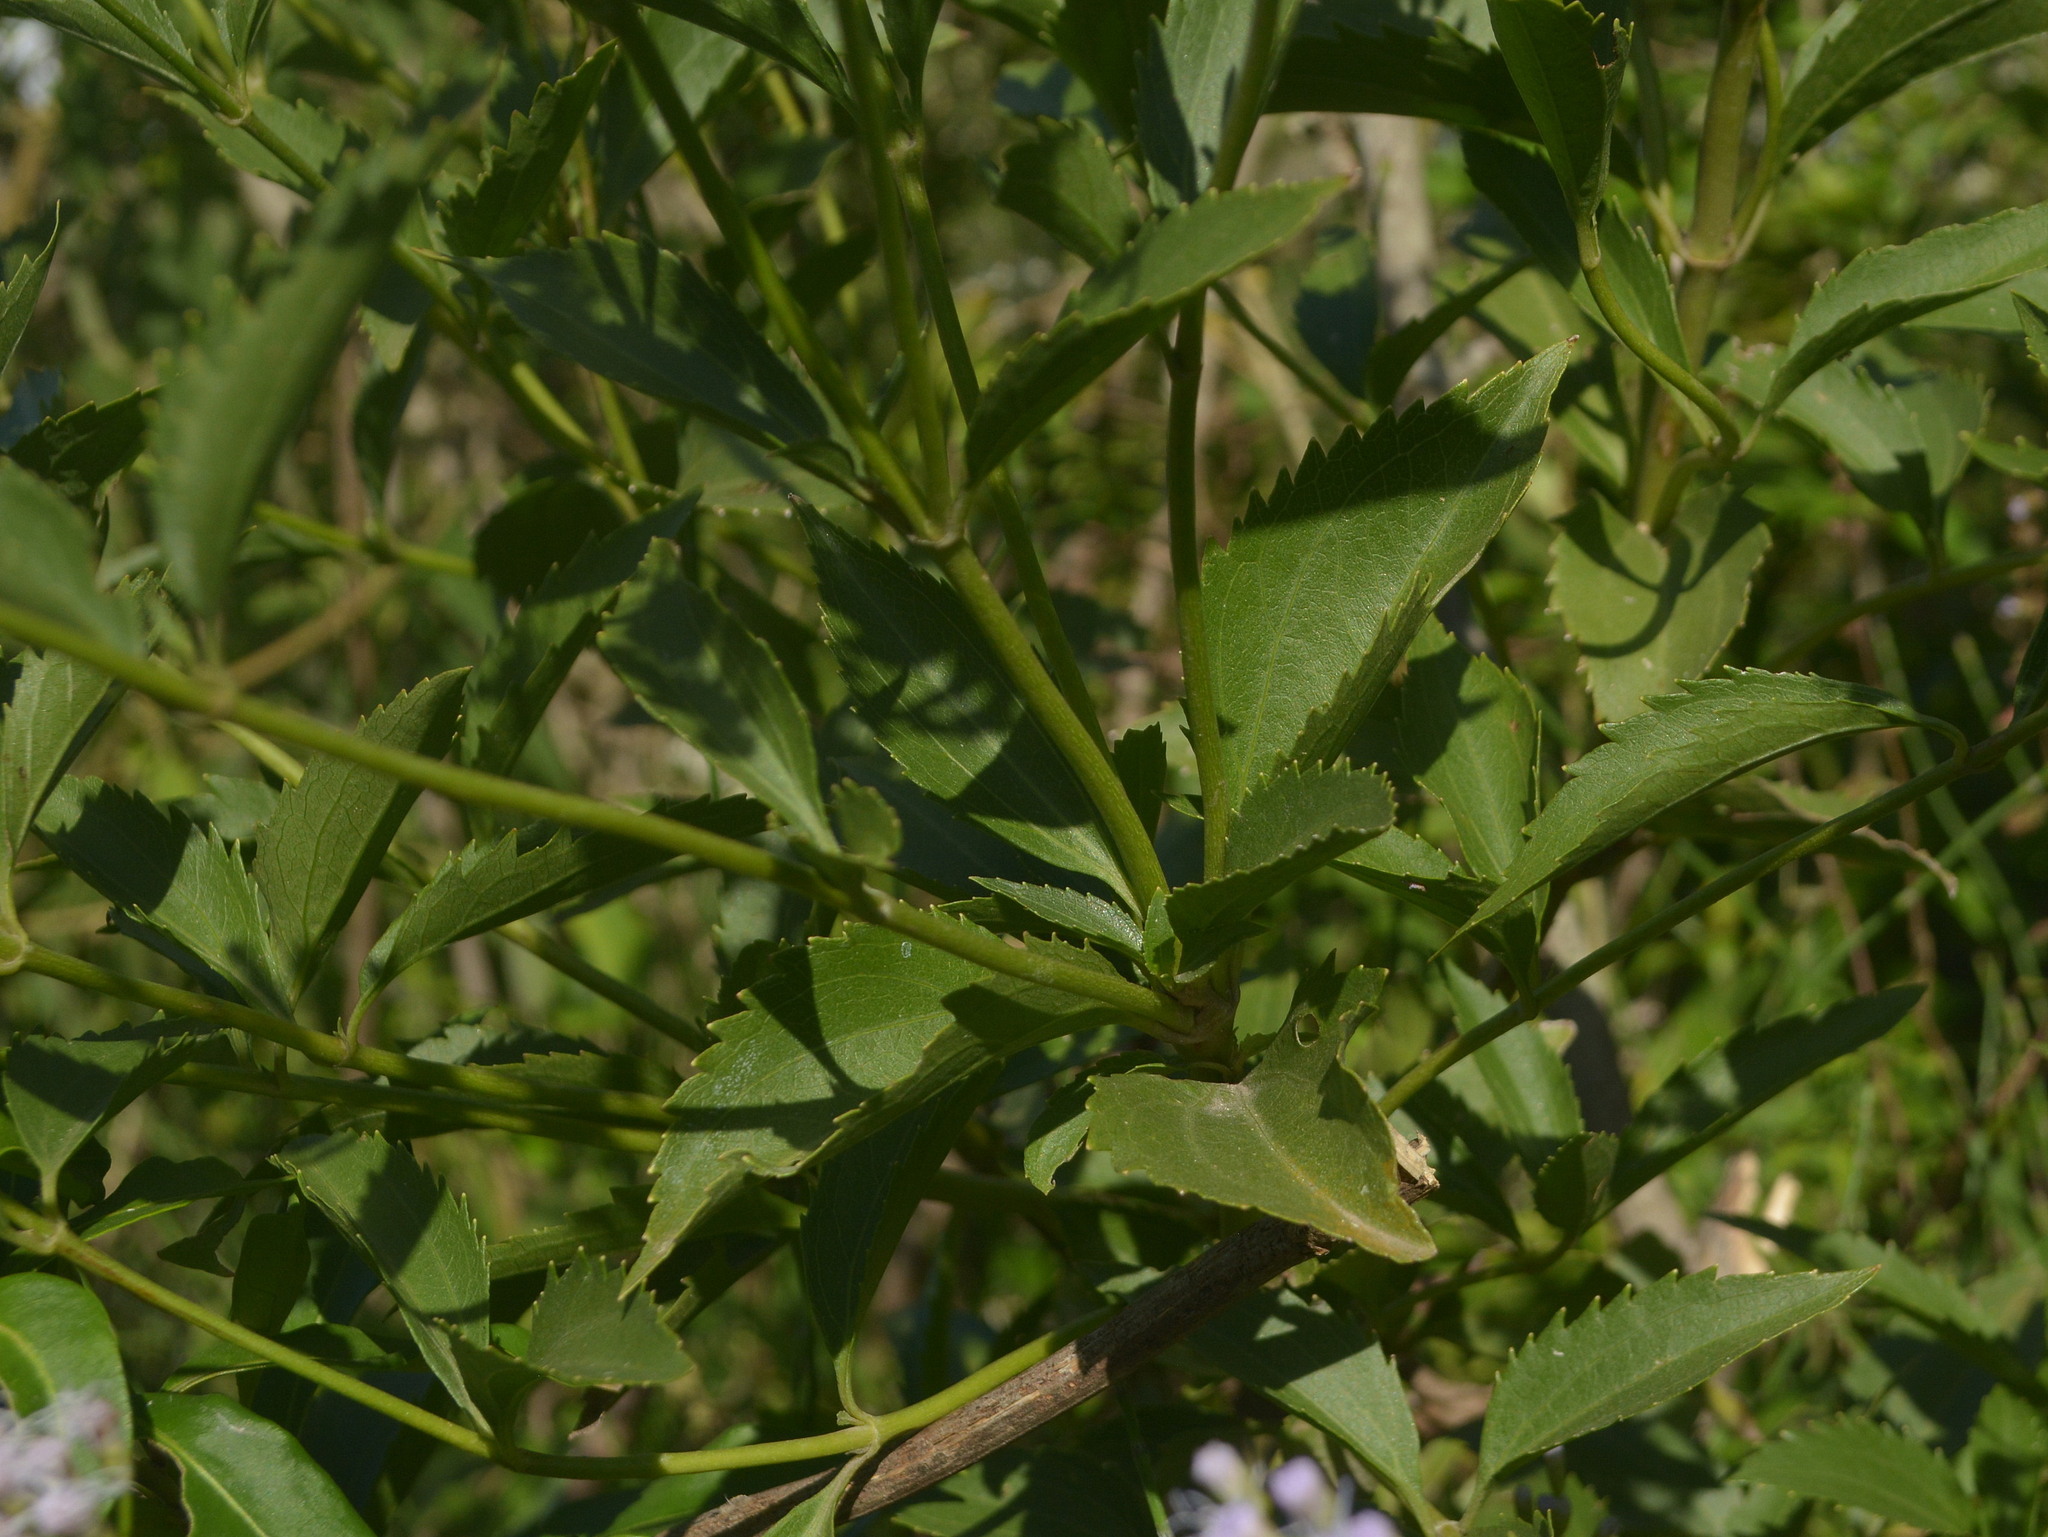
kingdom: Plantae
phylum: Tracheophyta
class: Magnoliopsida
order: Asterales
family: Asteraceae
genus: Chromolaena
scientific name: Chromolaena laevigata
